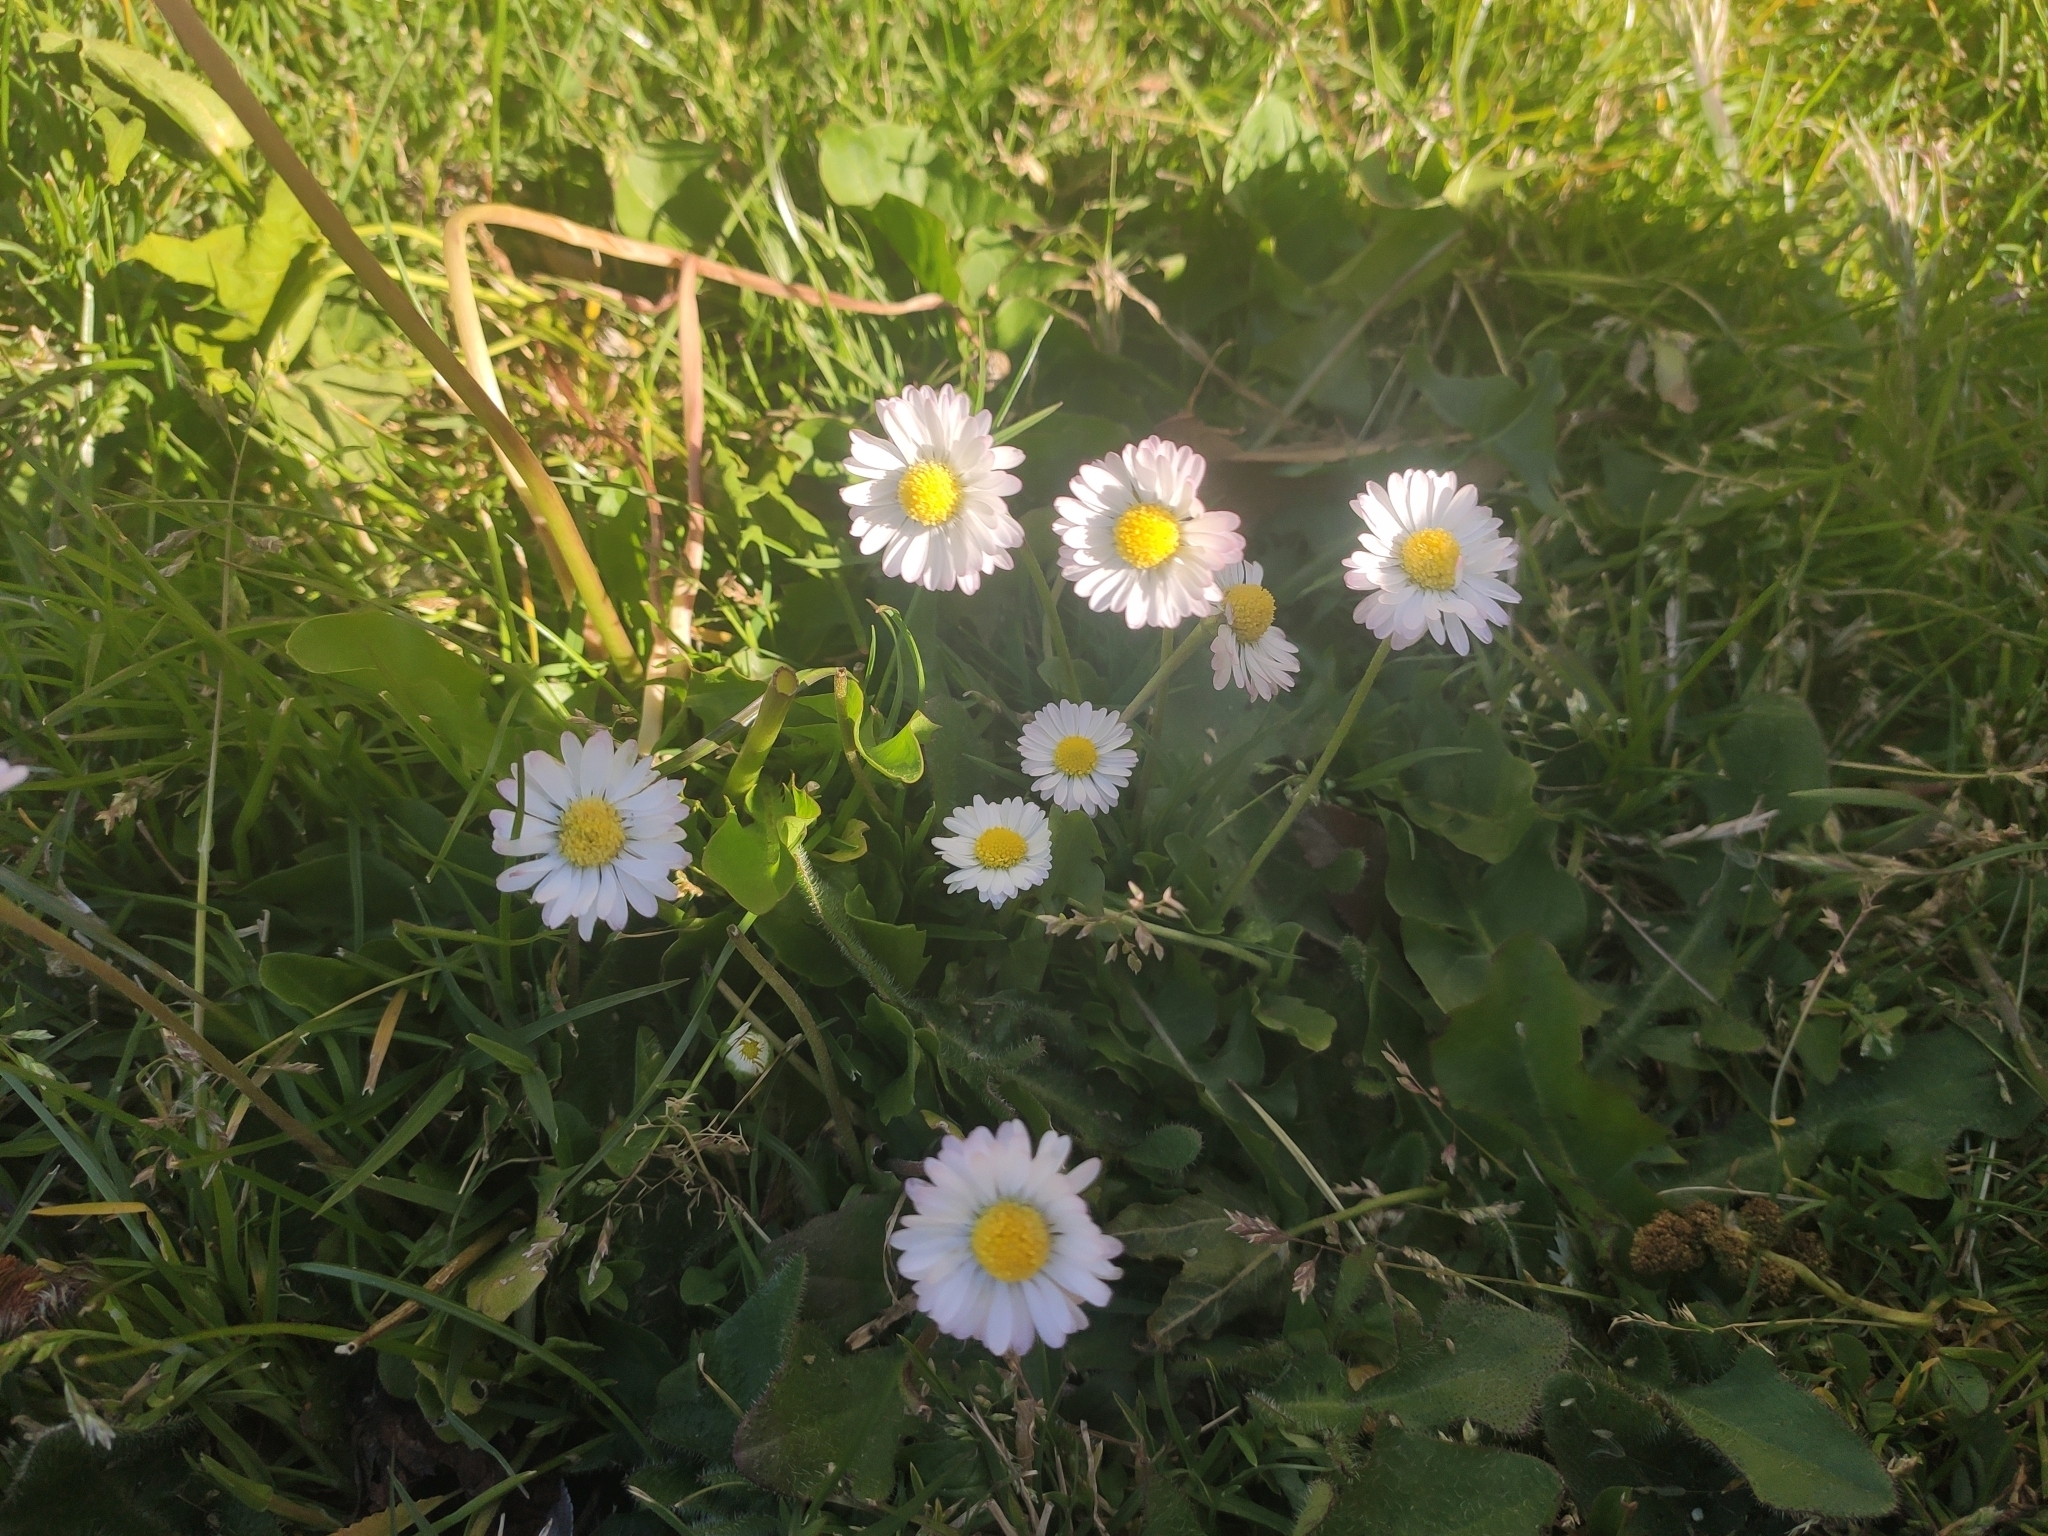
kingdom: Plantae
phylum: Tracheophyta
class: Magnoliopsida
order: Asterales
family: Asteraceae
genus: Bellis
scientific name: Bellis perennis
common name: Lawndaisy
